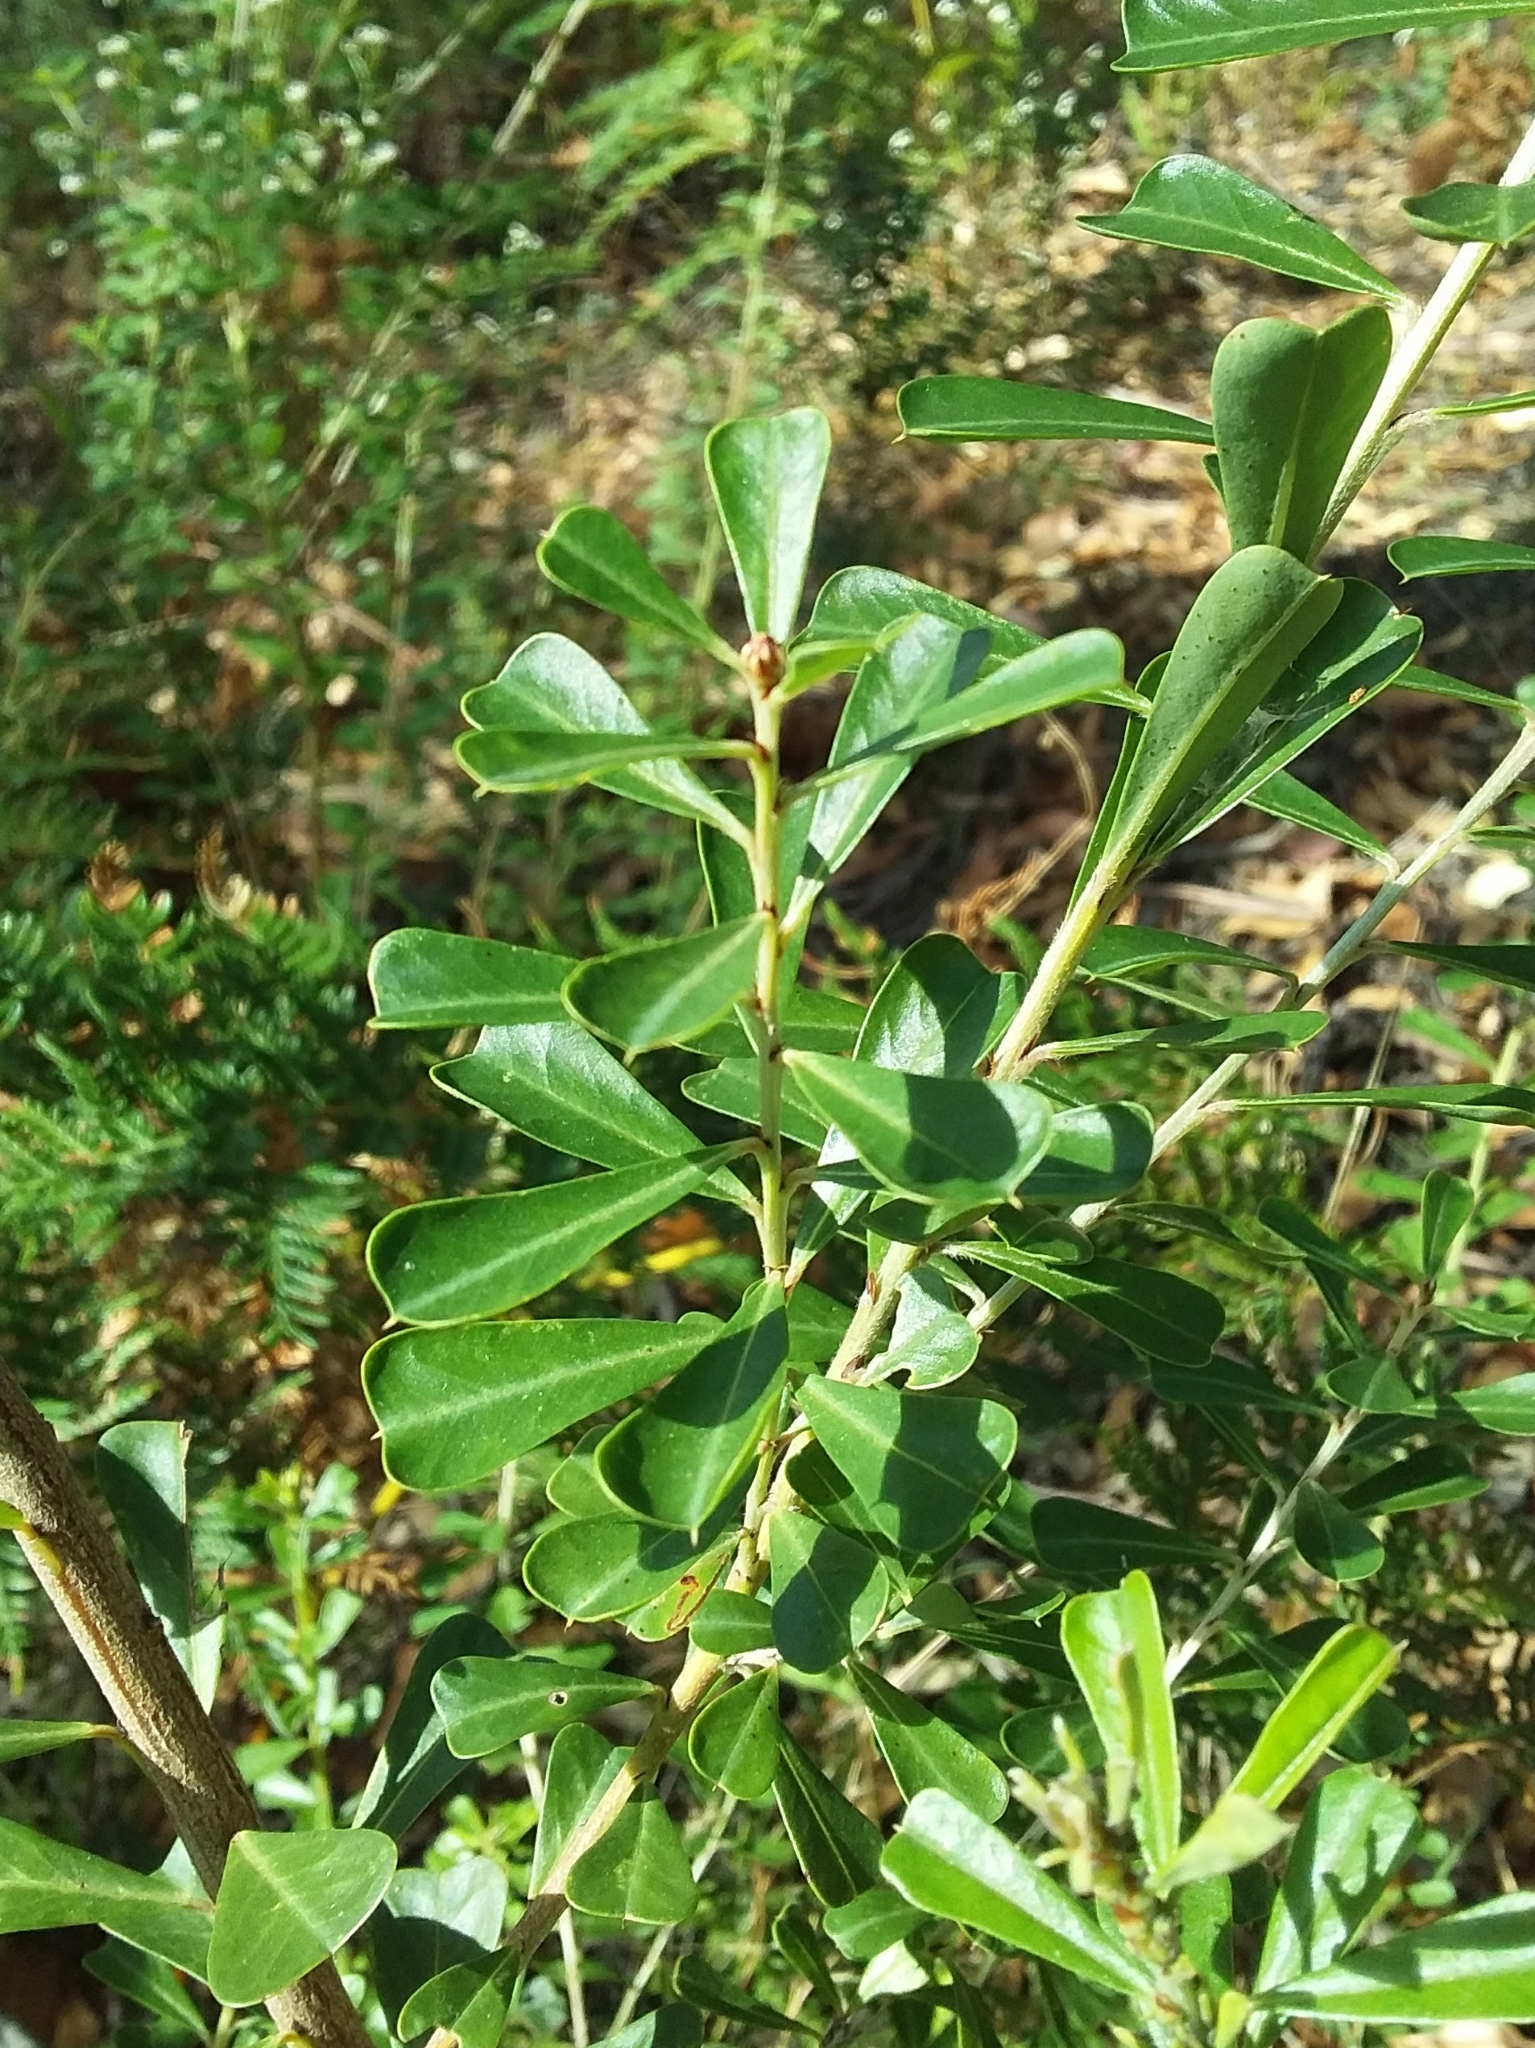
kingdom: Plantae
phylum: Tracheophyta
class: Magnoliopsida
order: Fabales
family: Fabaceae
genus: Pultenaea
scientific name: Pultenaea daphnoides
